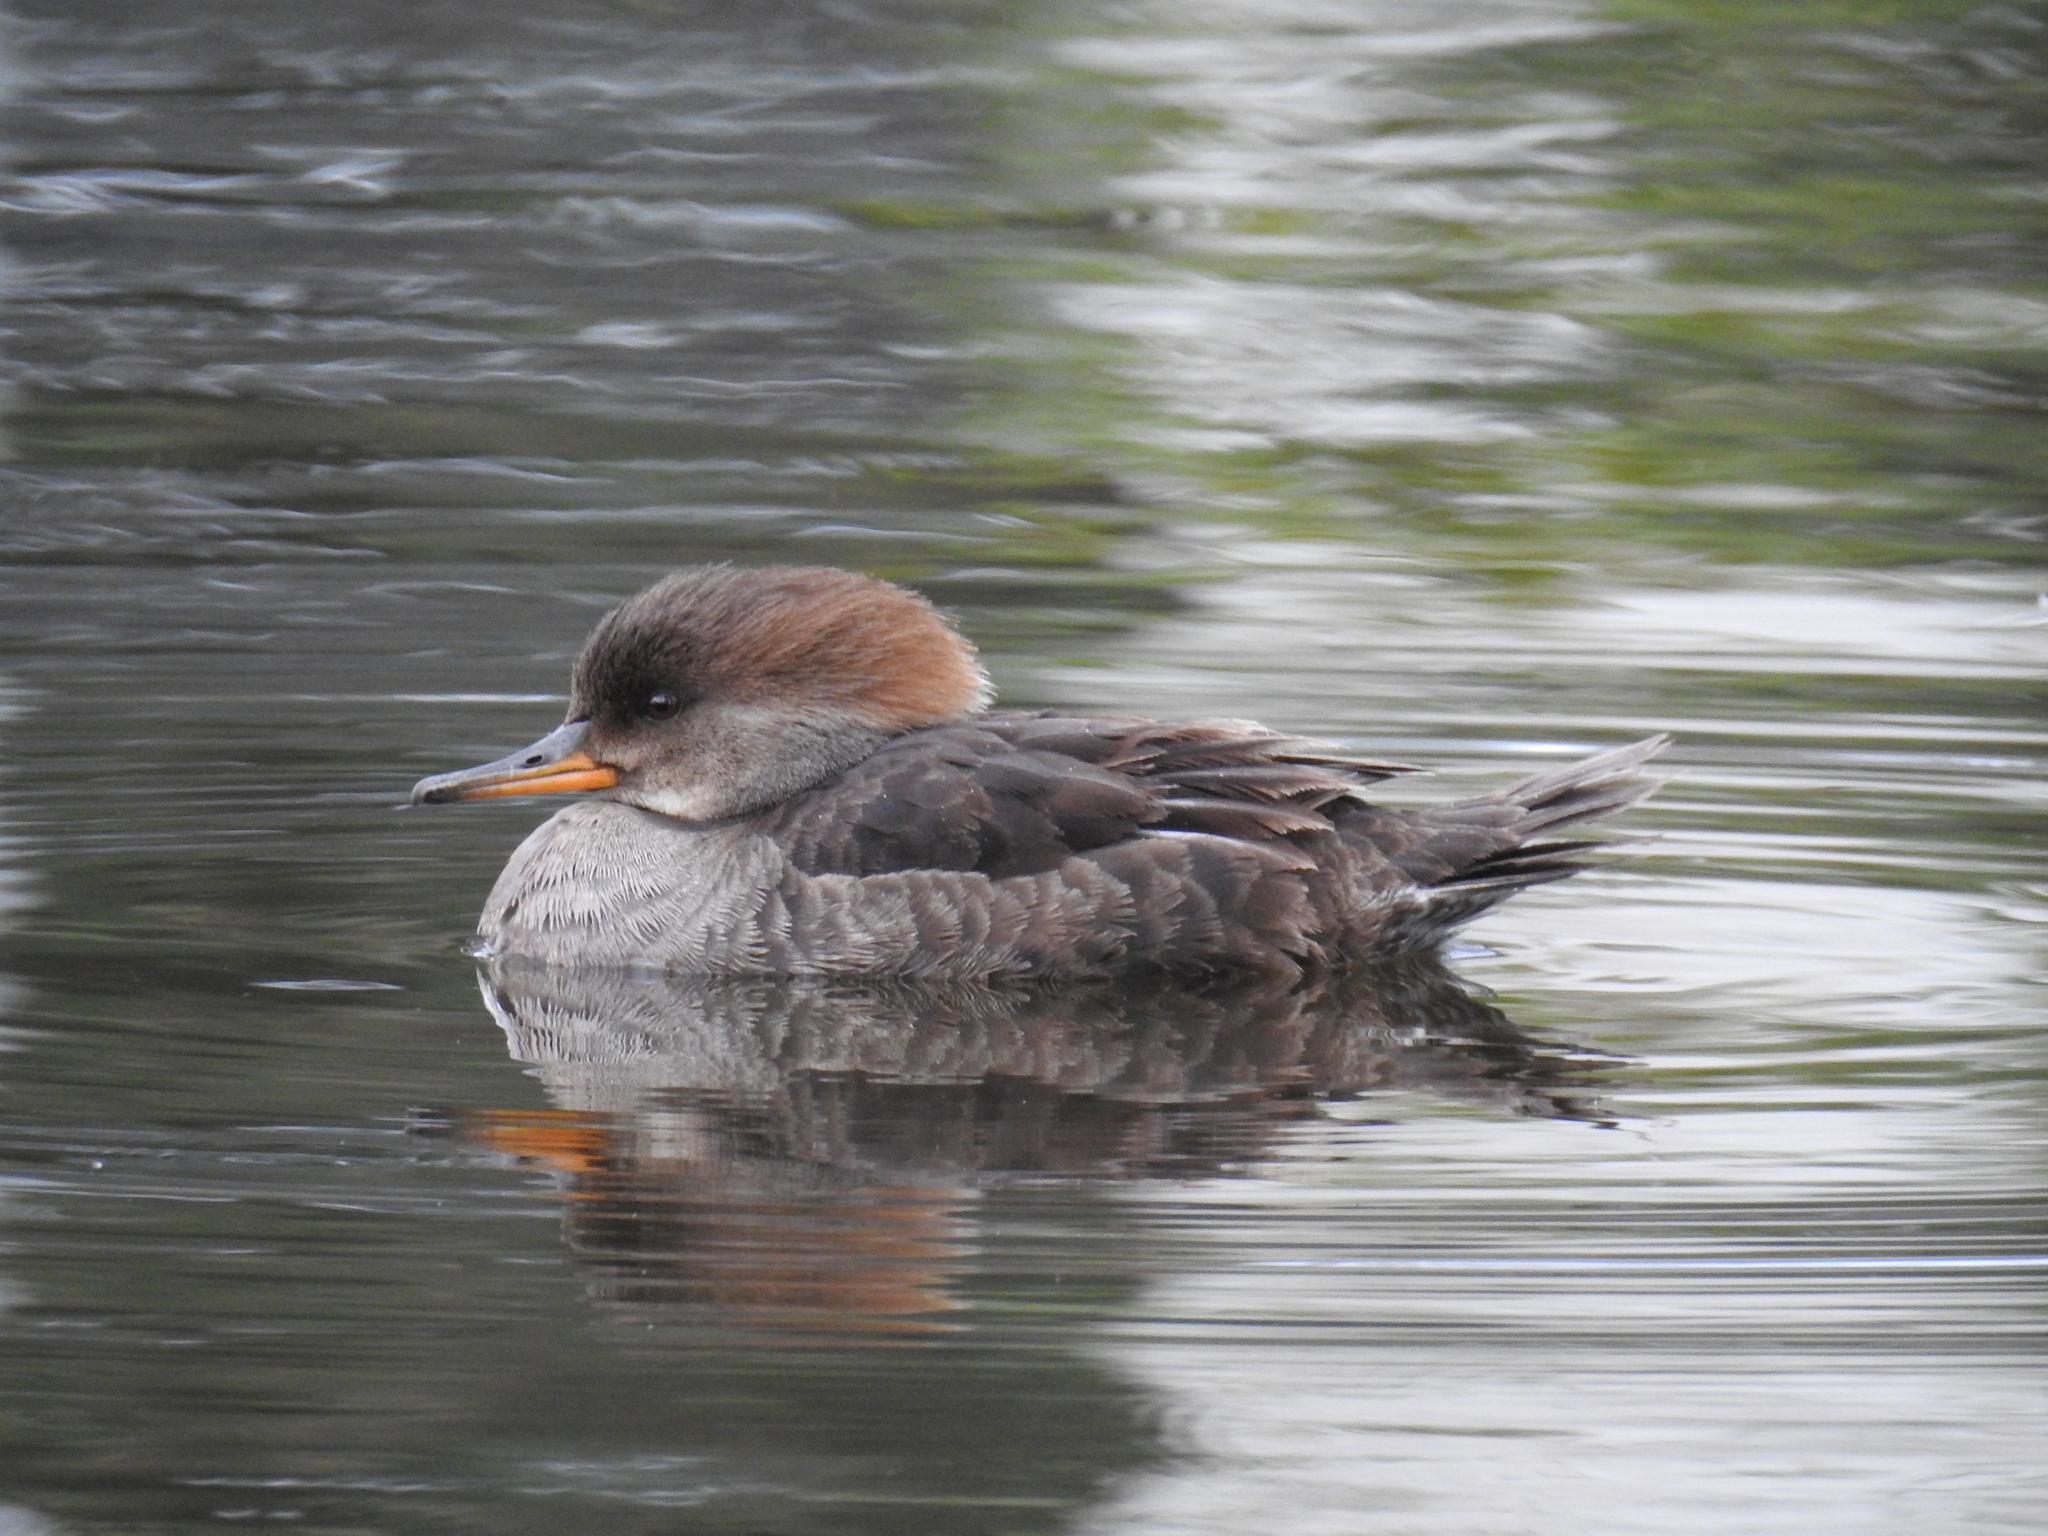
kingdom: Animalia
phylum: Chordata
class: Aves
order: Anseriformes
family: Anatidae
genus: Lophodytes
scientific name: Lophodytes cucullatus
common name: Hooded merganser
